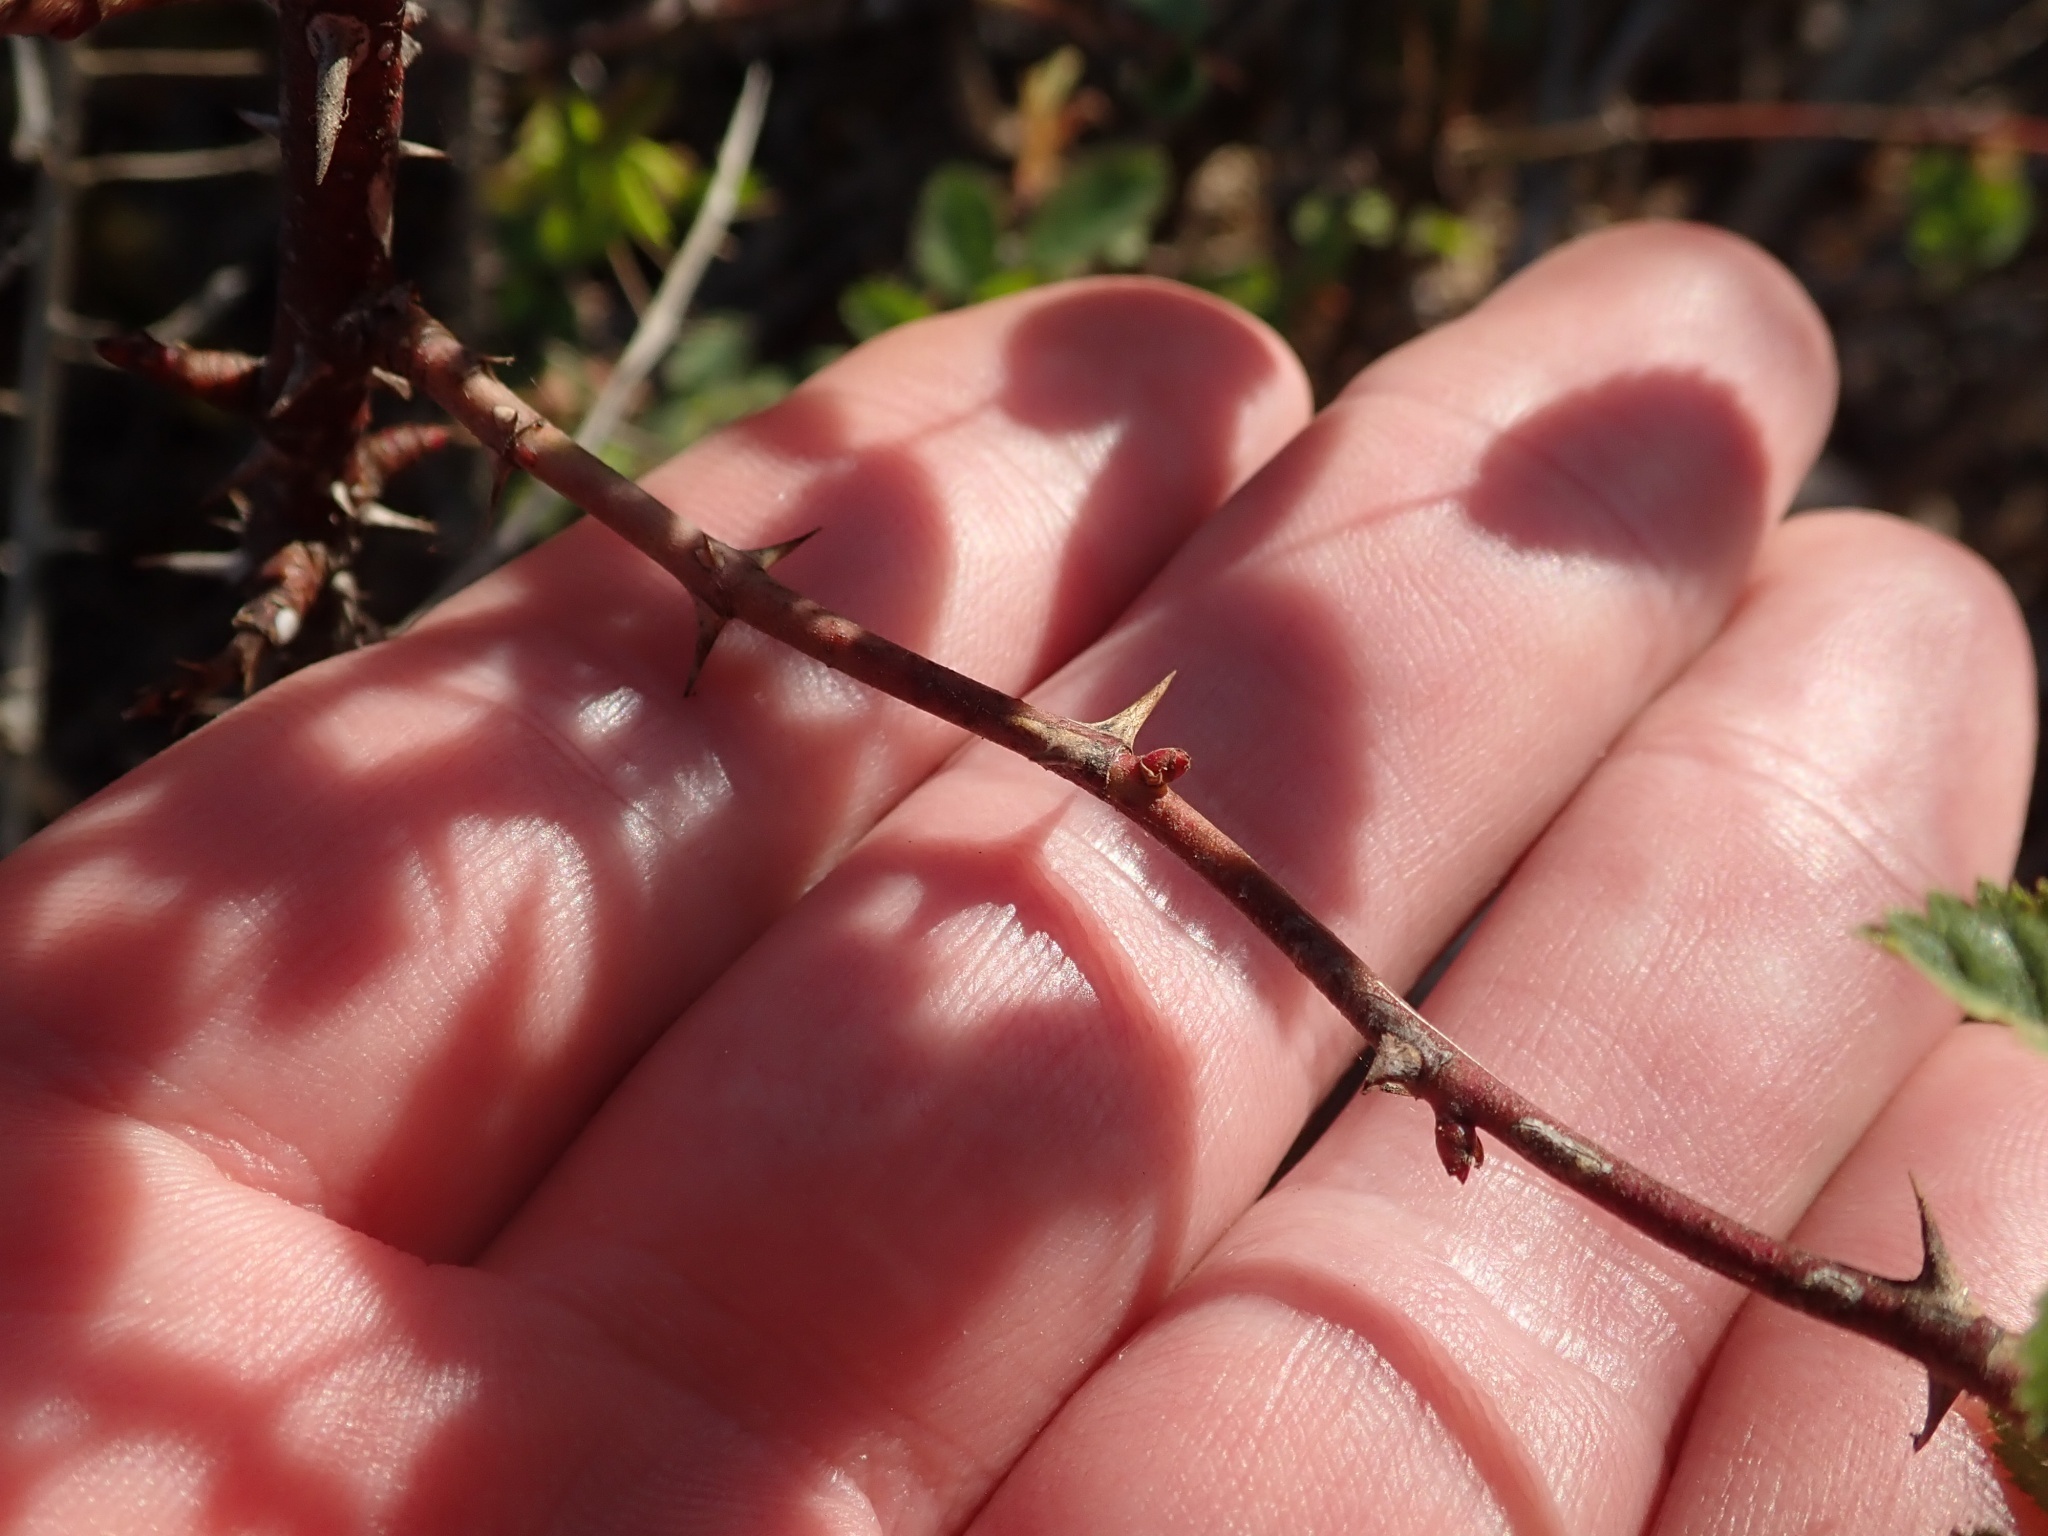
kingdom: Plantae
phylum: Tracheophyta
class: Magnoliopsida
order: Rosales
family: Rosaceae
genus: Rosa
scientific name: Rosa californica
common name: California rose
